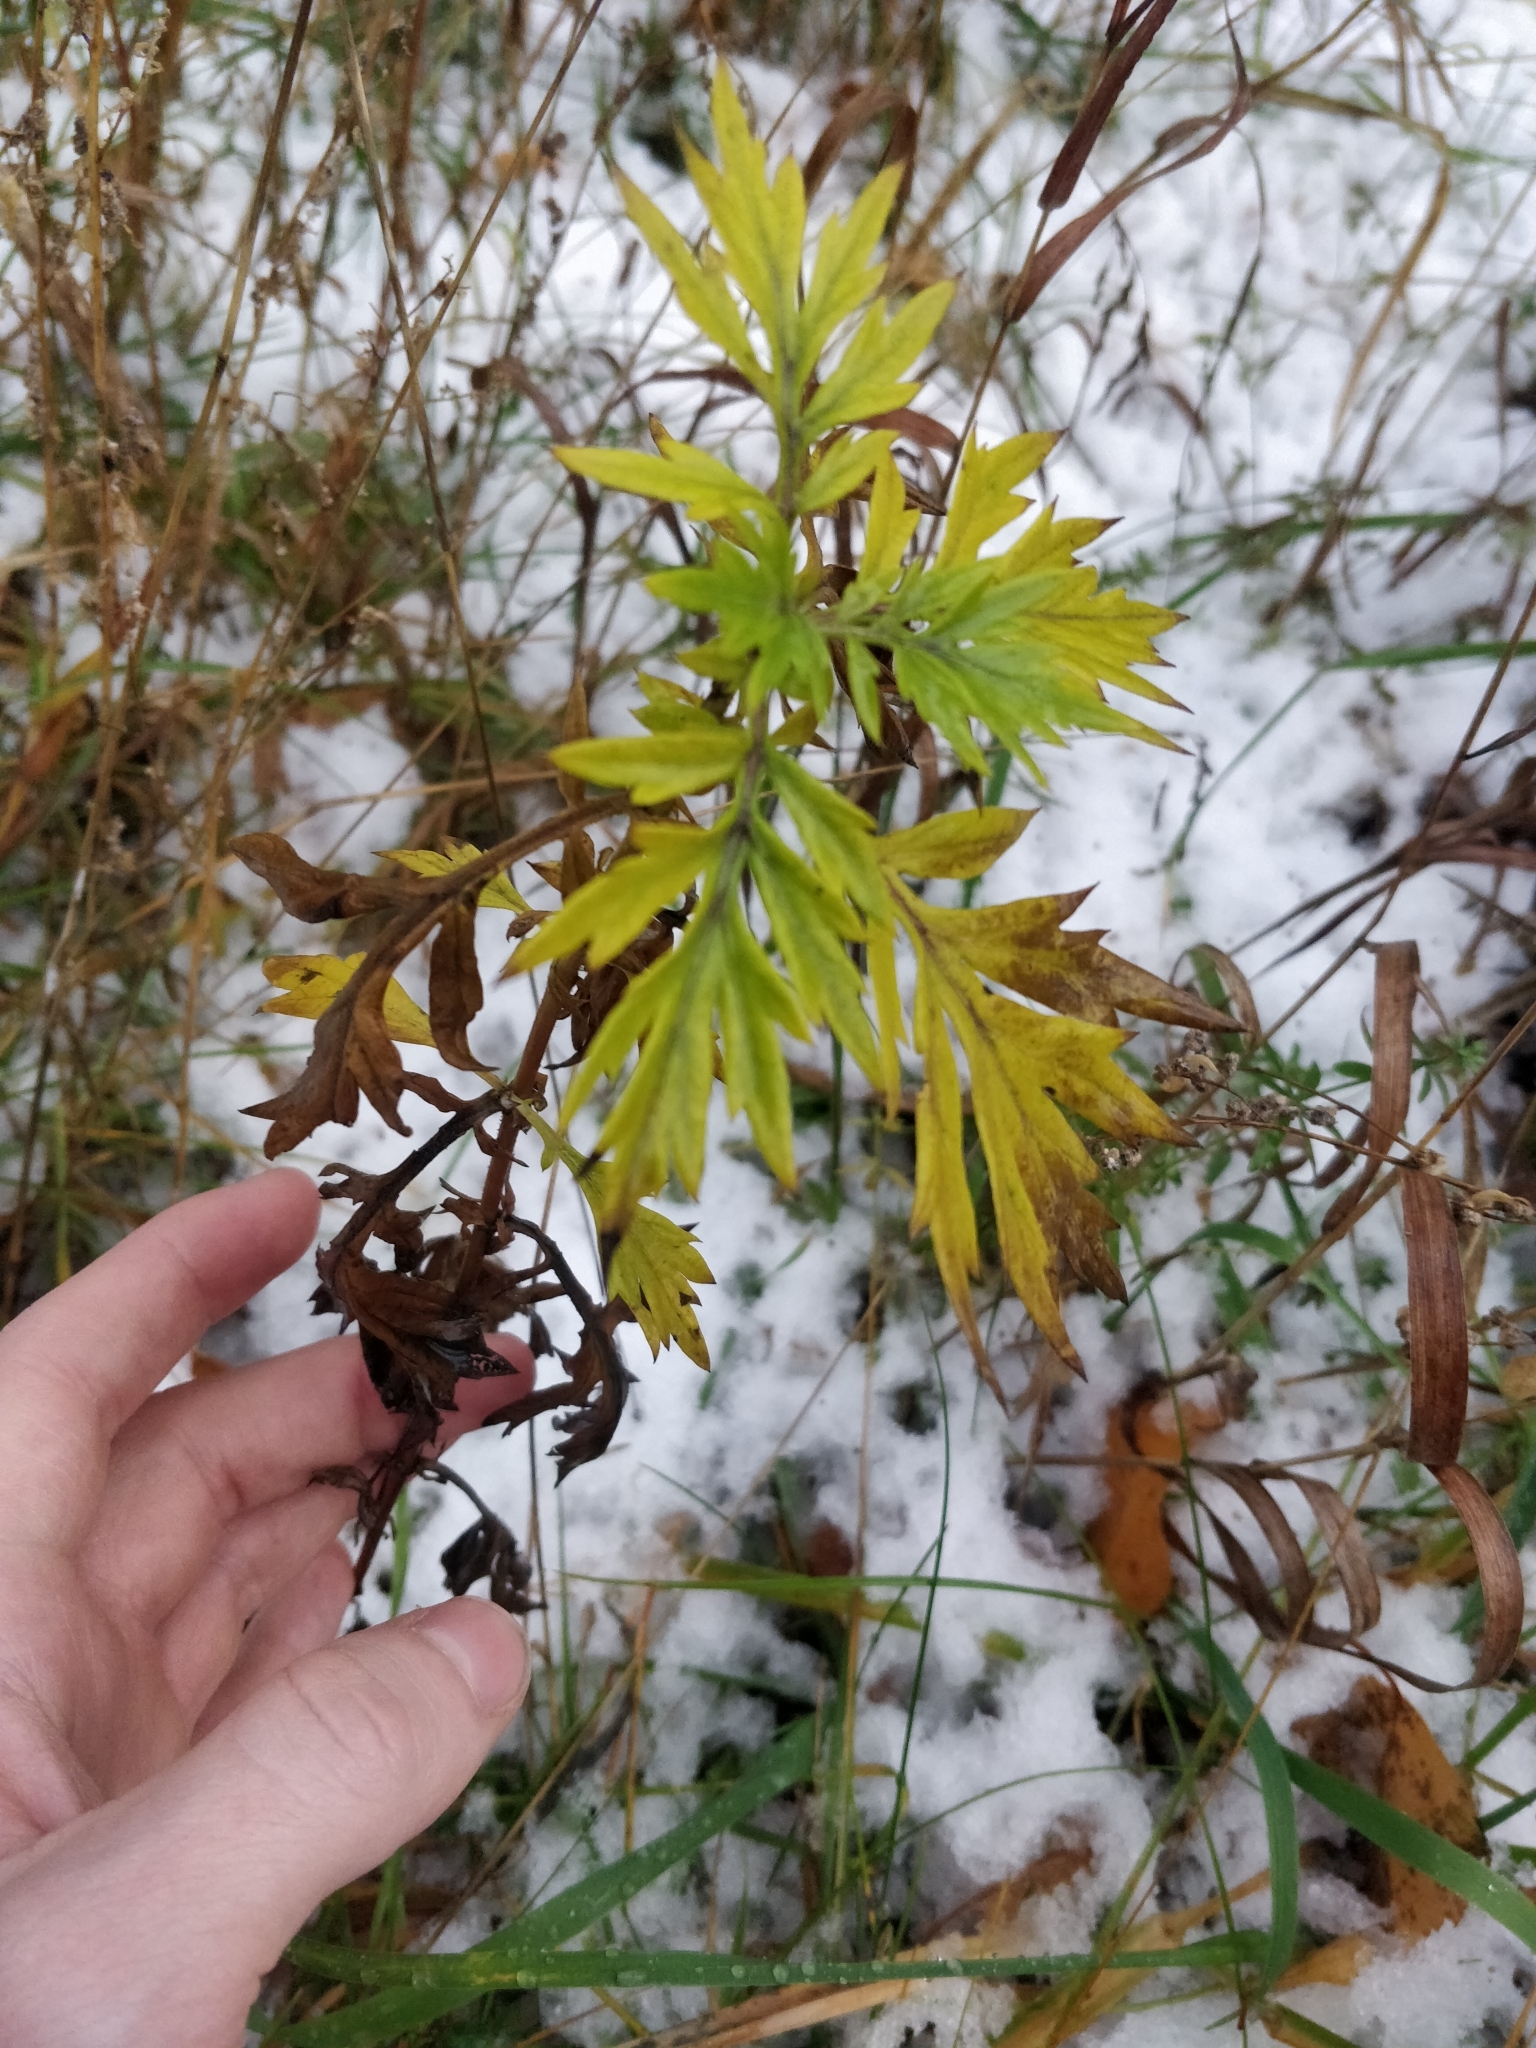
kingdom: Plantae
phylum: Tracheophyta
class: Magnoliopsida
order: Asterales
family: Asteraceae
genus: Artemisia
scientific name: Artemisia vulgaris
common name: Mugwort
